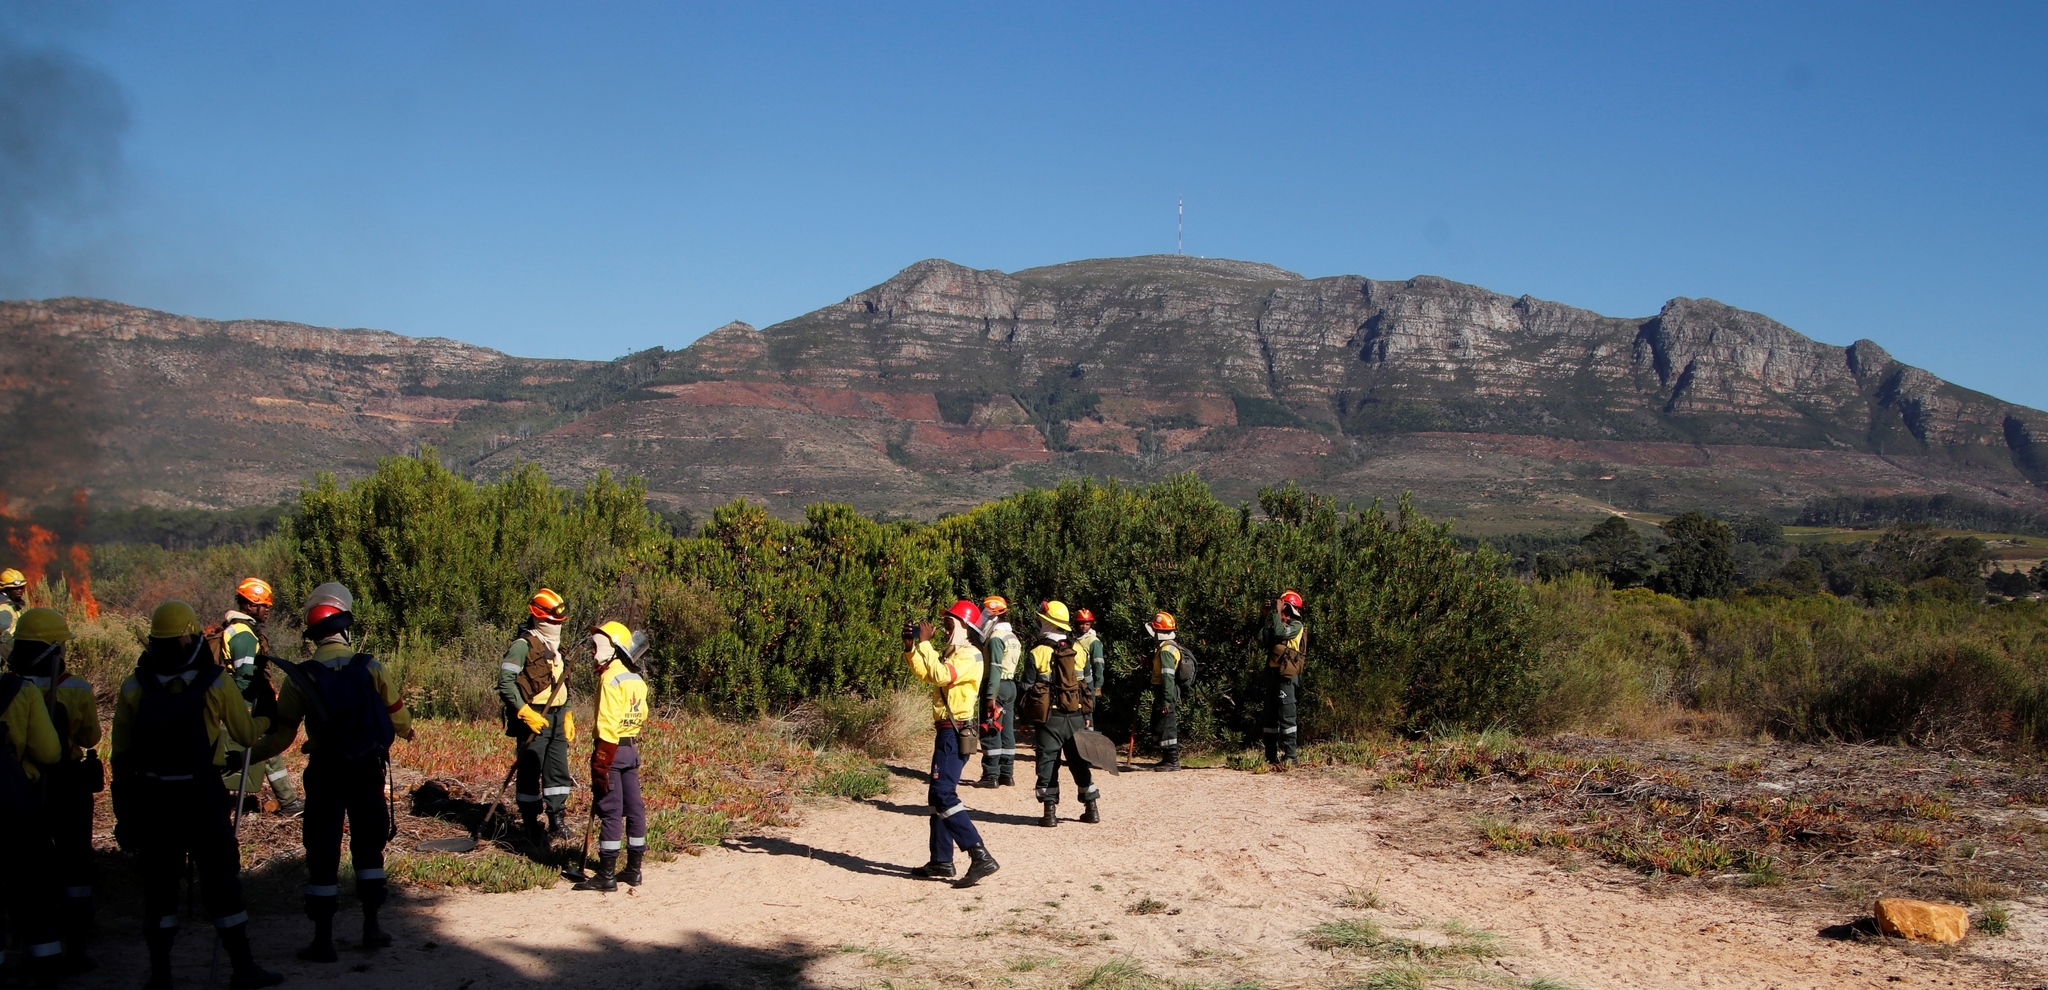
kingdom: Plantae
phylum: Tracheophyta
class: Magnoliopsida
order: Proteales
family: Proteaceae
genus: Leucadendron
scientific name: Leucadendron laureolum
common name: Golden sunshinebush
